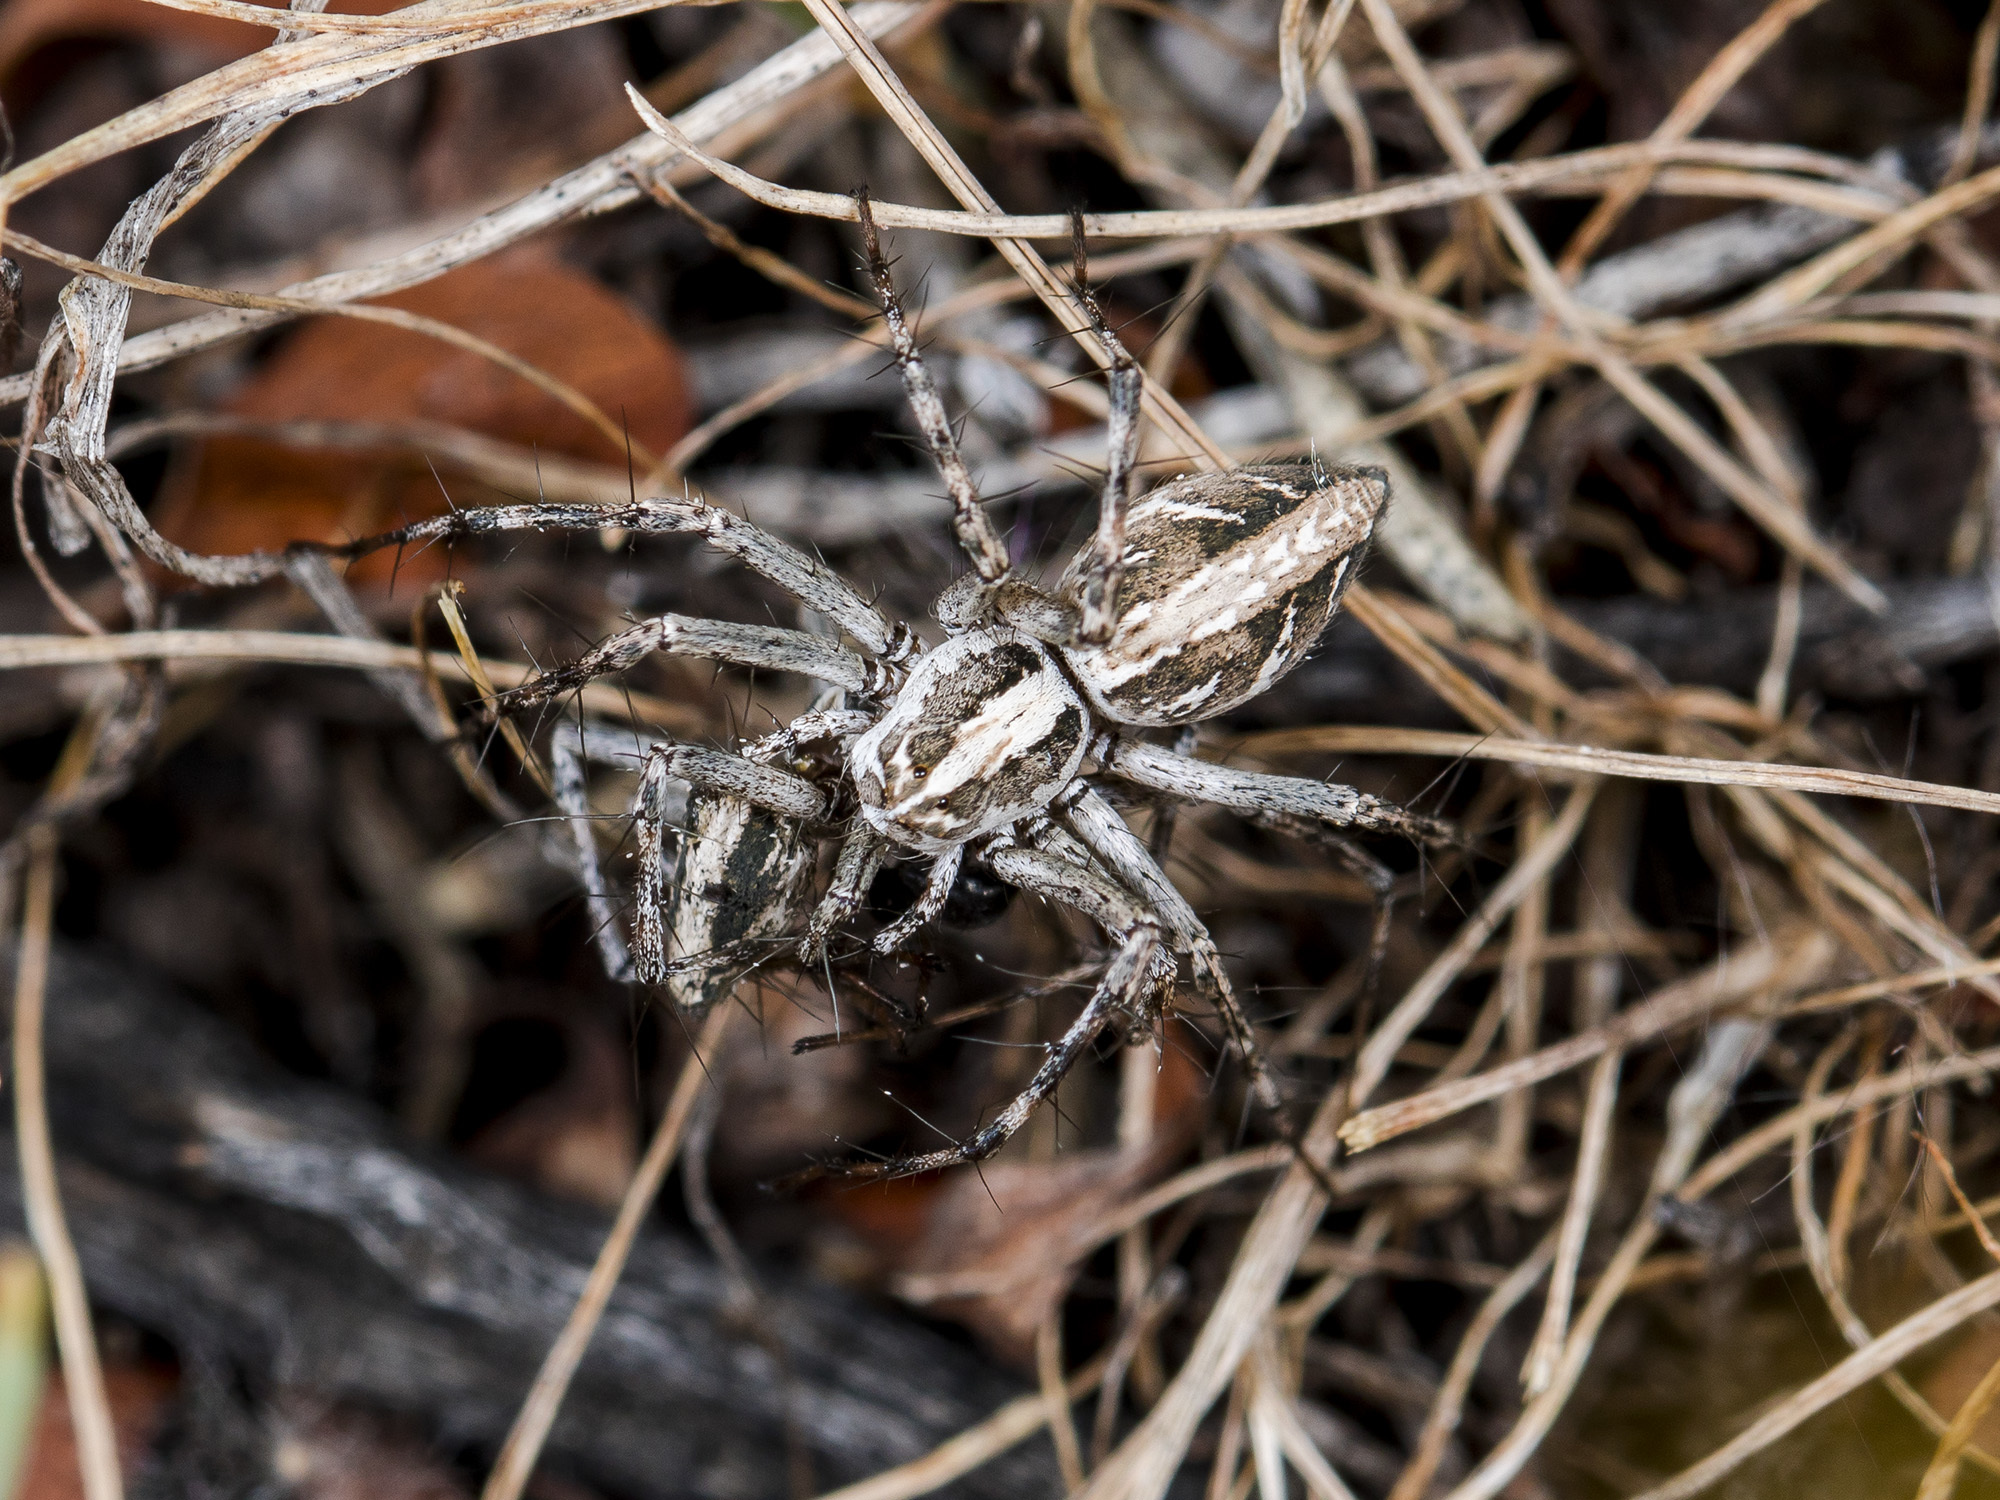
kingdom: Animalia
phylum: Arthropoda
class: Arachnida
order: Araneae
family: Oxyopidae
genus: Oxyopes
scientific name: Oxyopes globifer
